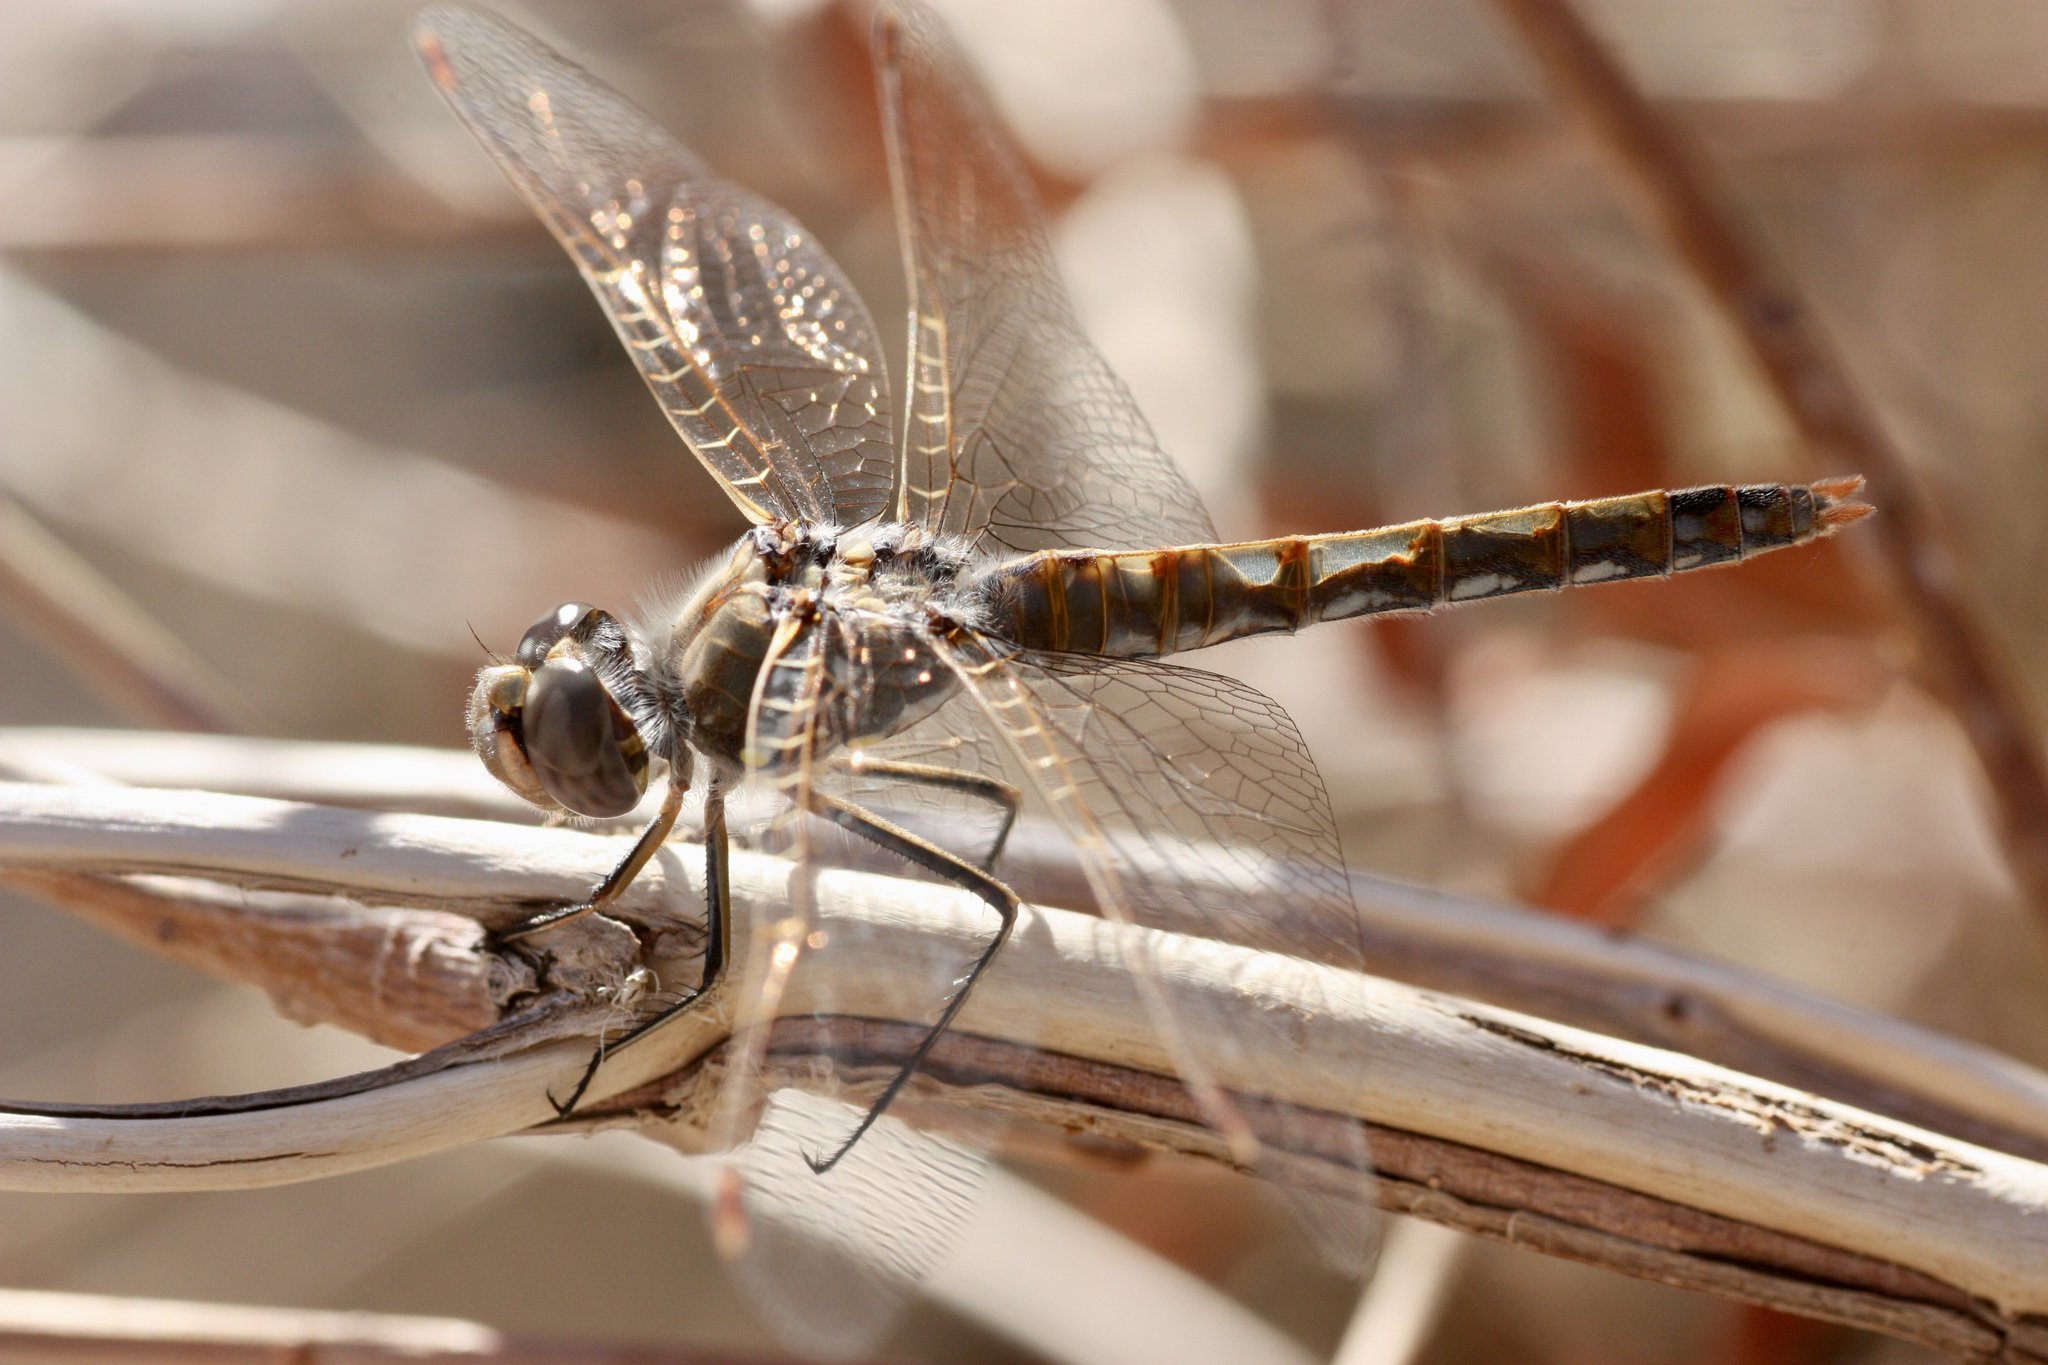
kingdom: Animalia
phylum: Arthropoda
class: Insecta
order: Odonata
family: Libellulidae
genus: Sympetrum
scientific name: Sympetrum corruptum
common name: Variegated meadowhawk
